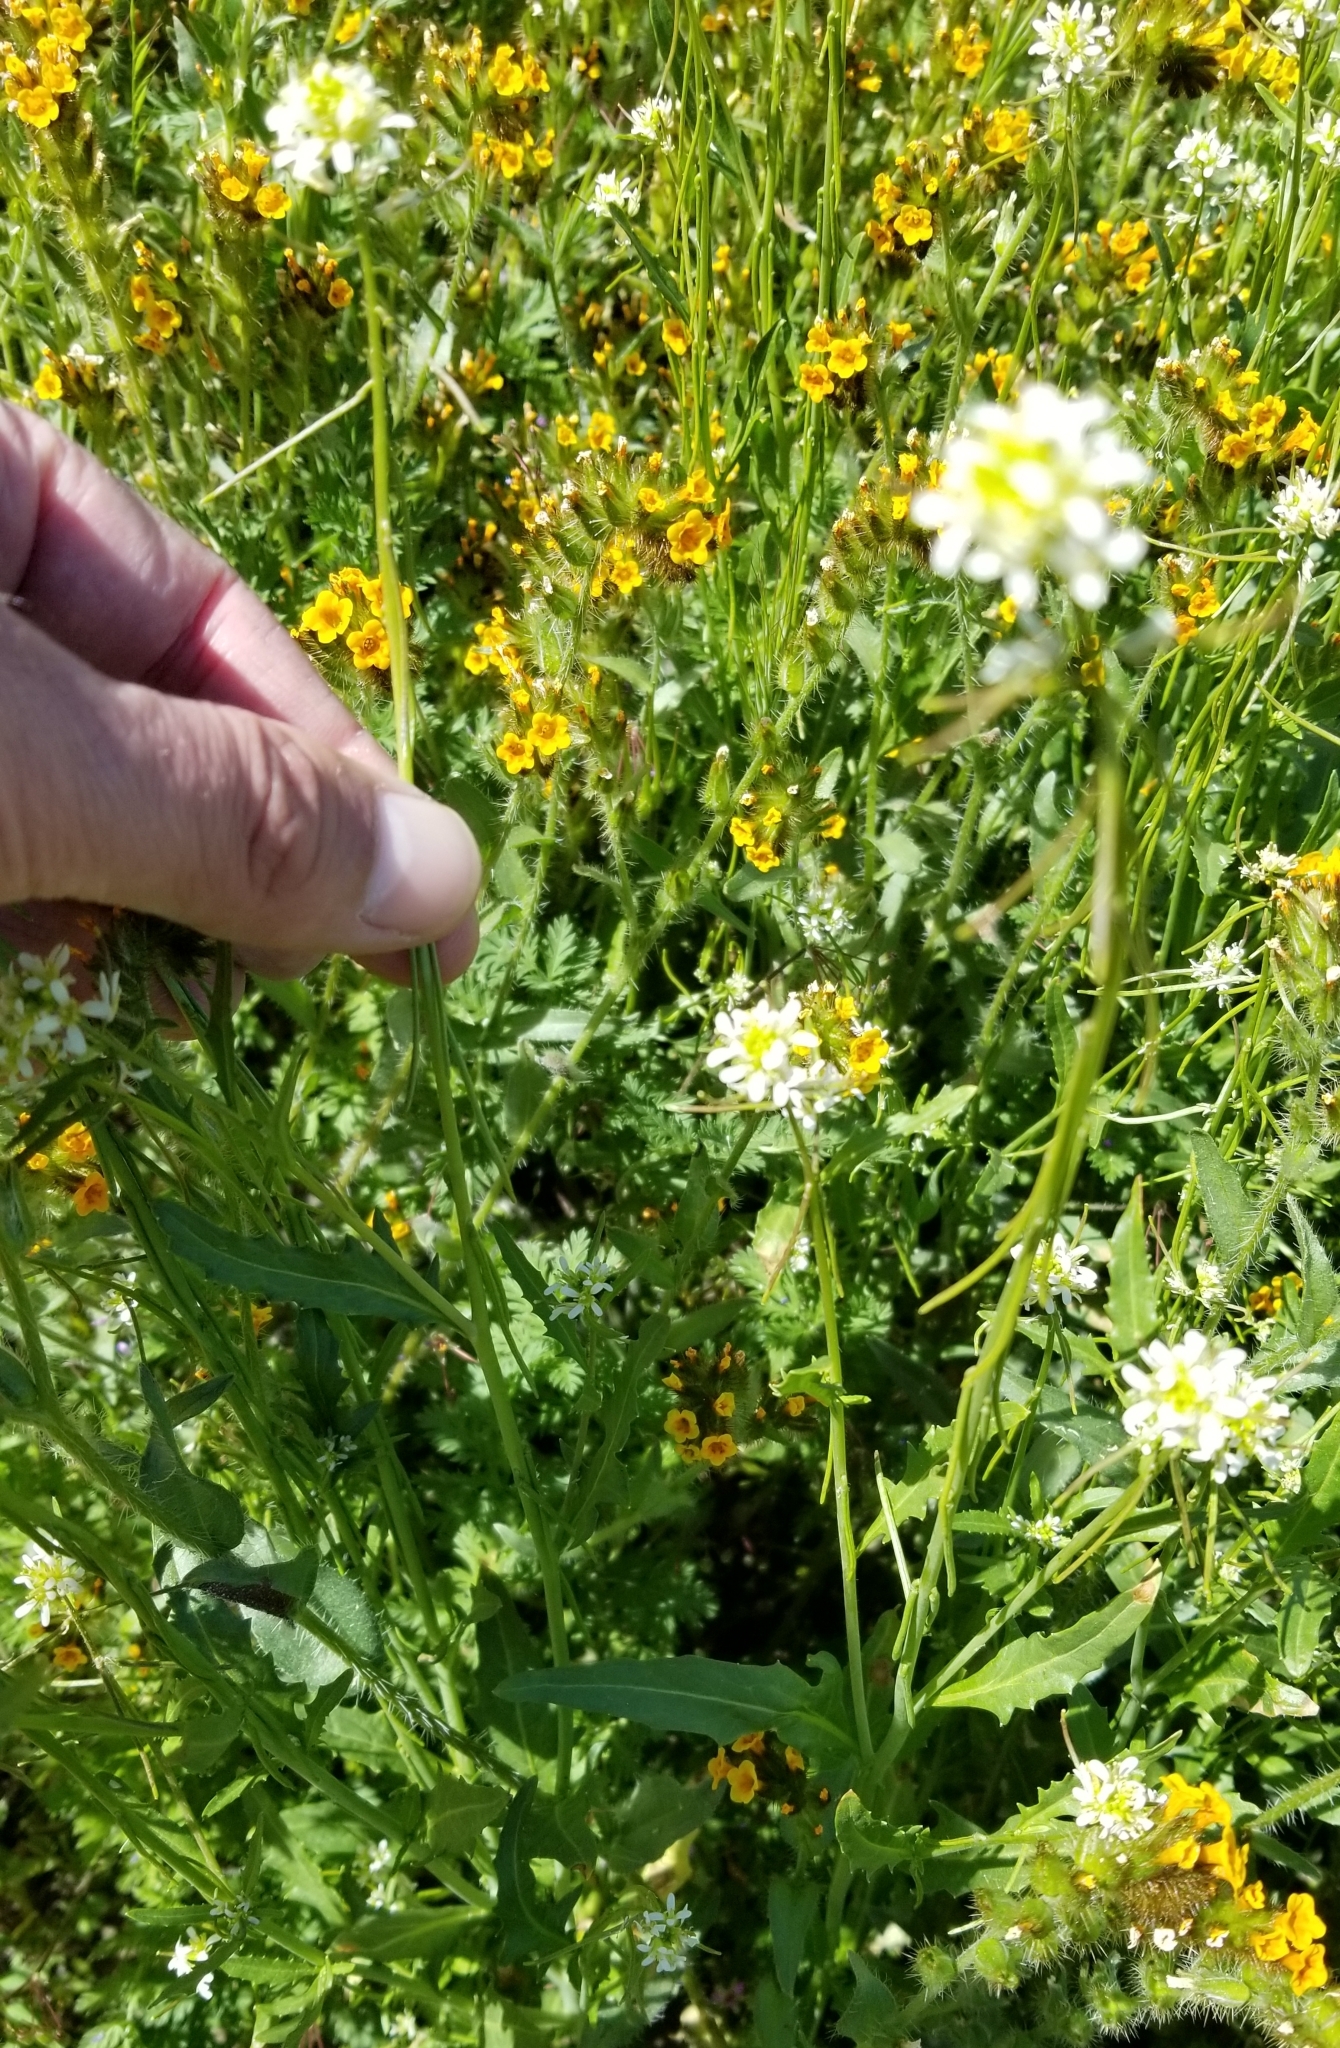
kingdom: Plantae
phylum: Tracheophyta
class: Magnoliopsida
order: Brassicales
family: Brassicaceae
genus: Streptanthus
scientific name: Streptanthus lasiophyllus
